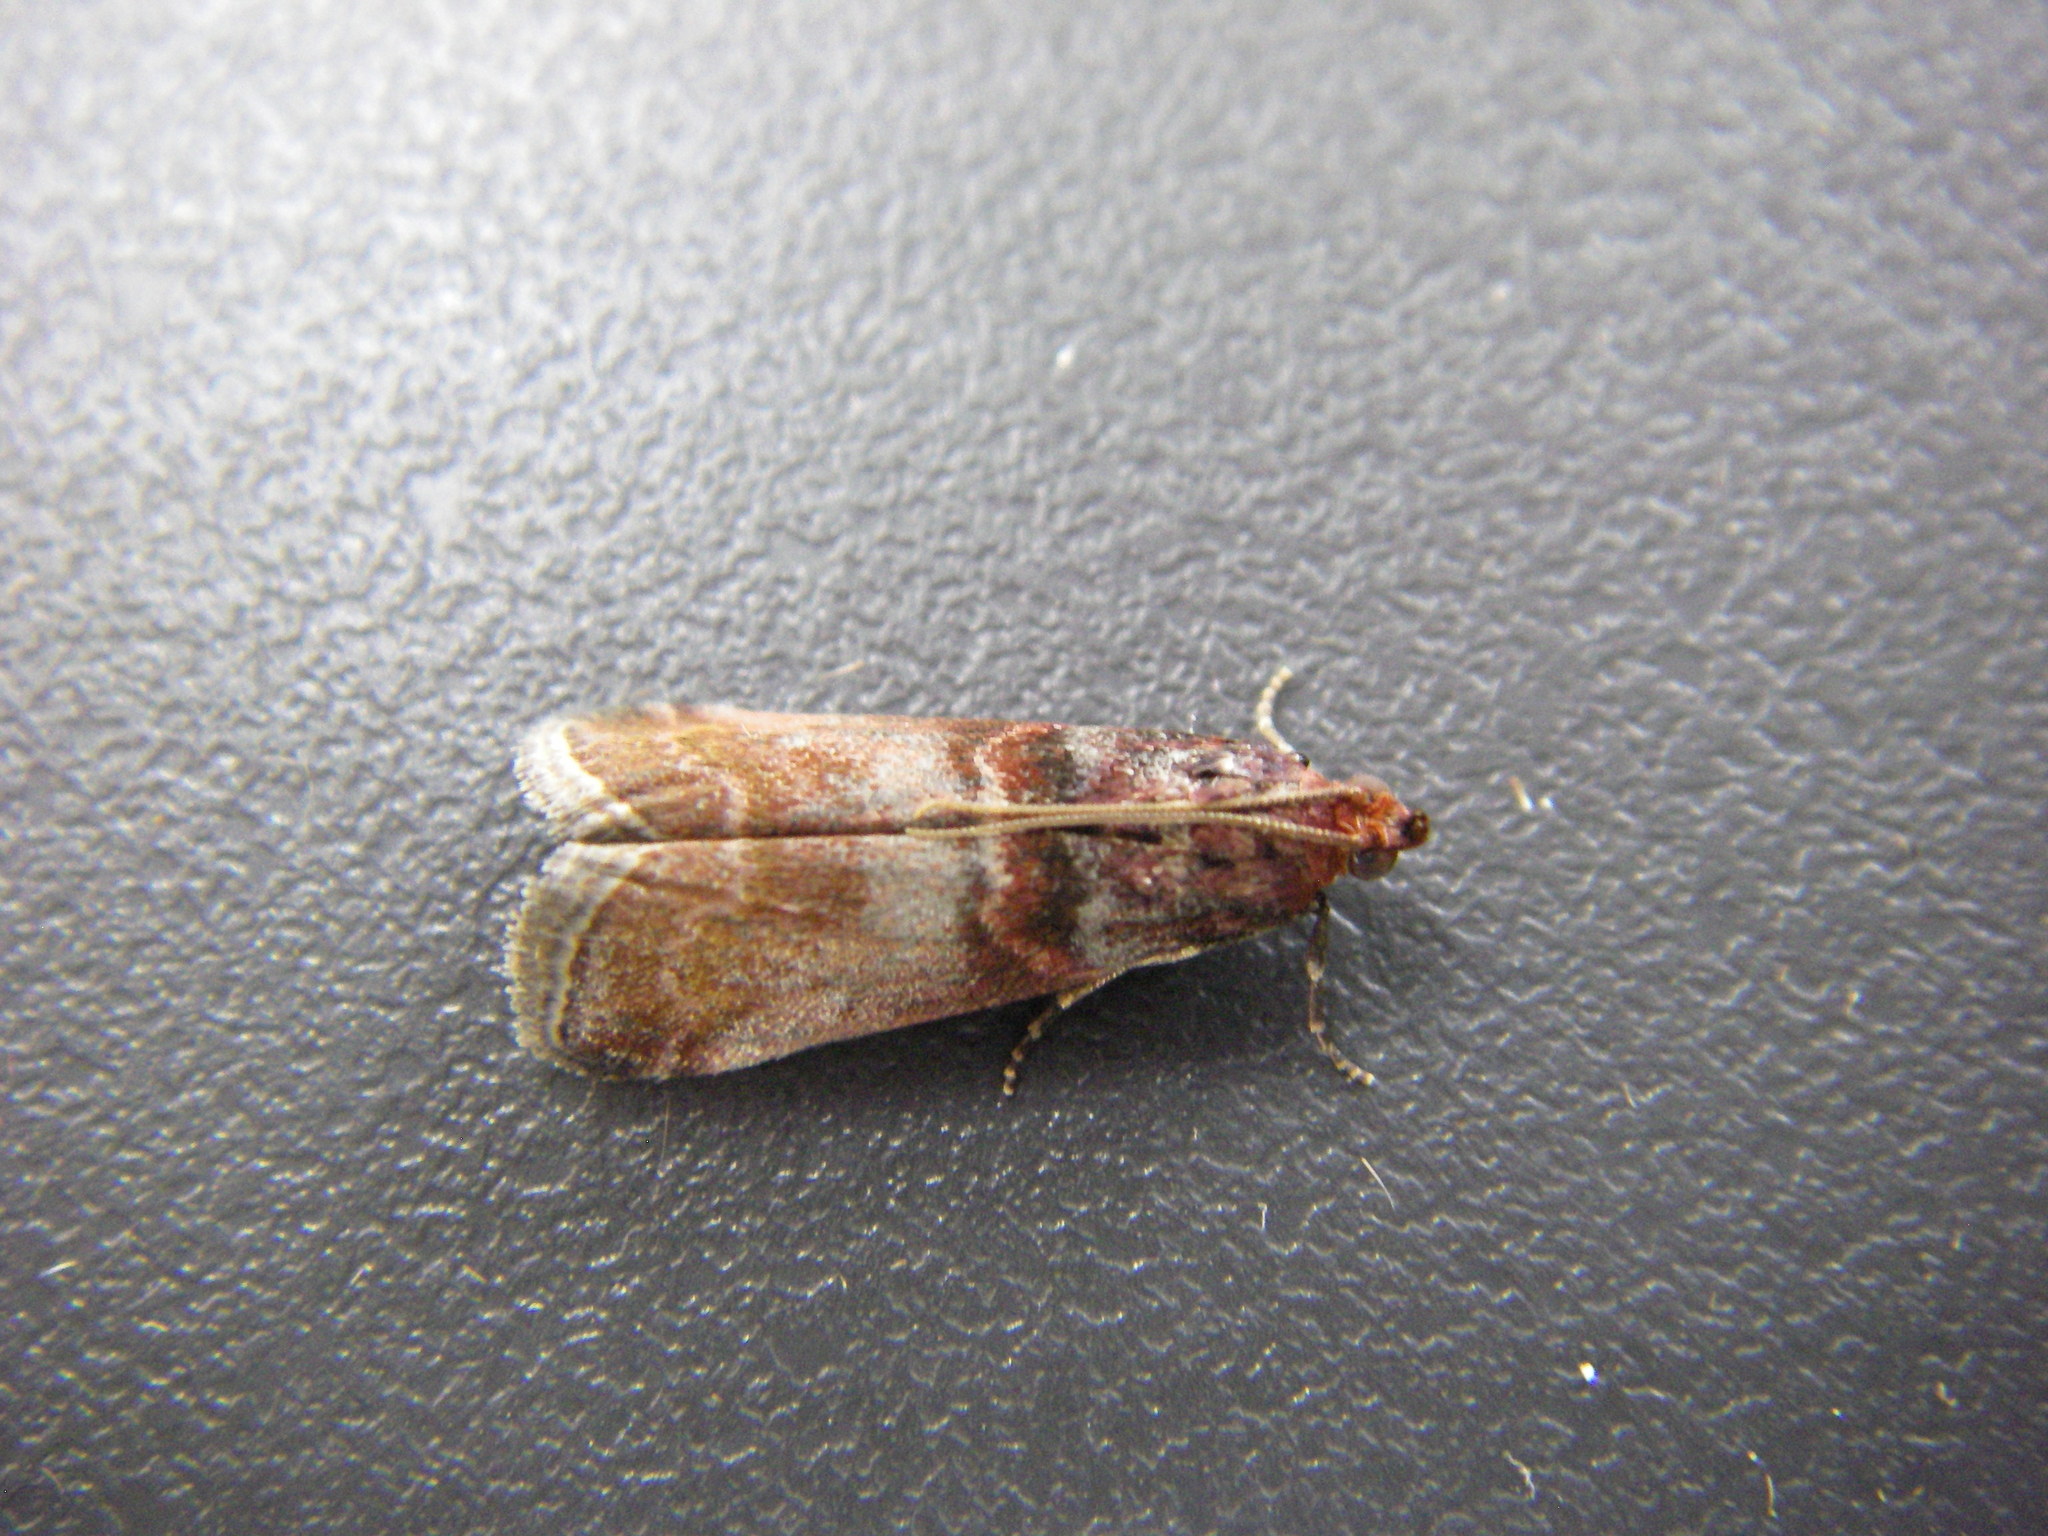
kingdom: Animalia
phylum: Arthropoda
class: Insecta
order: Lepidoptera
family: Pyralidae
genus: Acrobasis
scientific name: Acrobasis advenella
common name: Grey knot-horn
